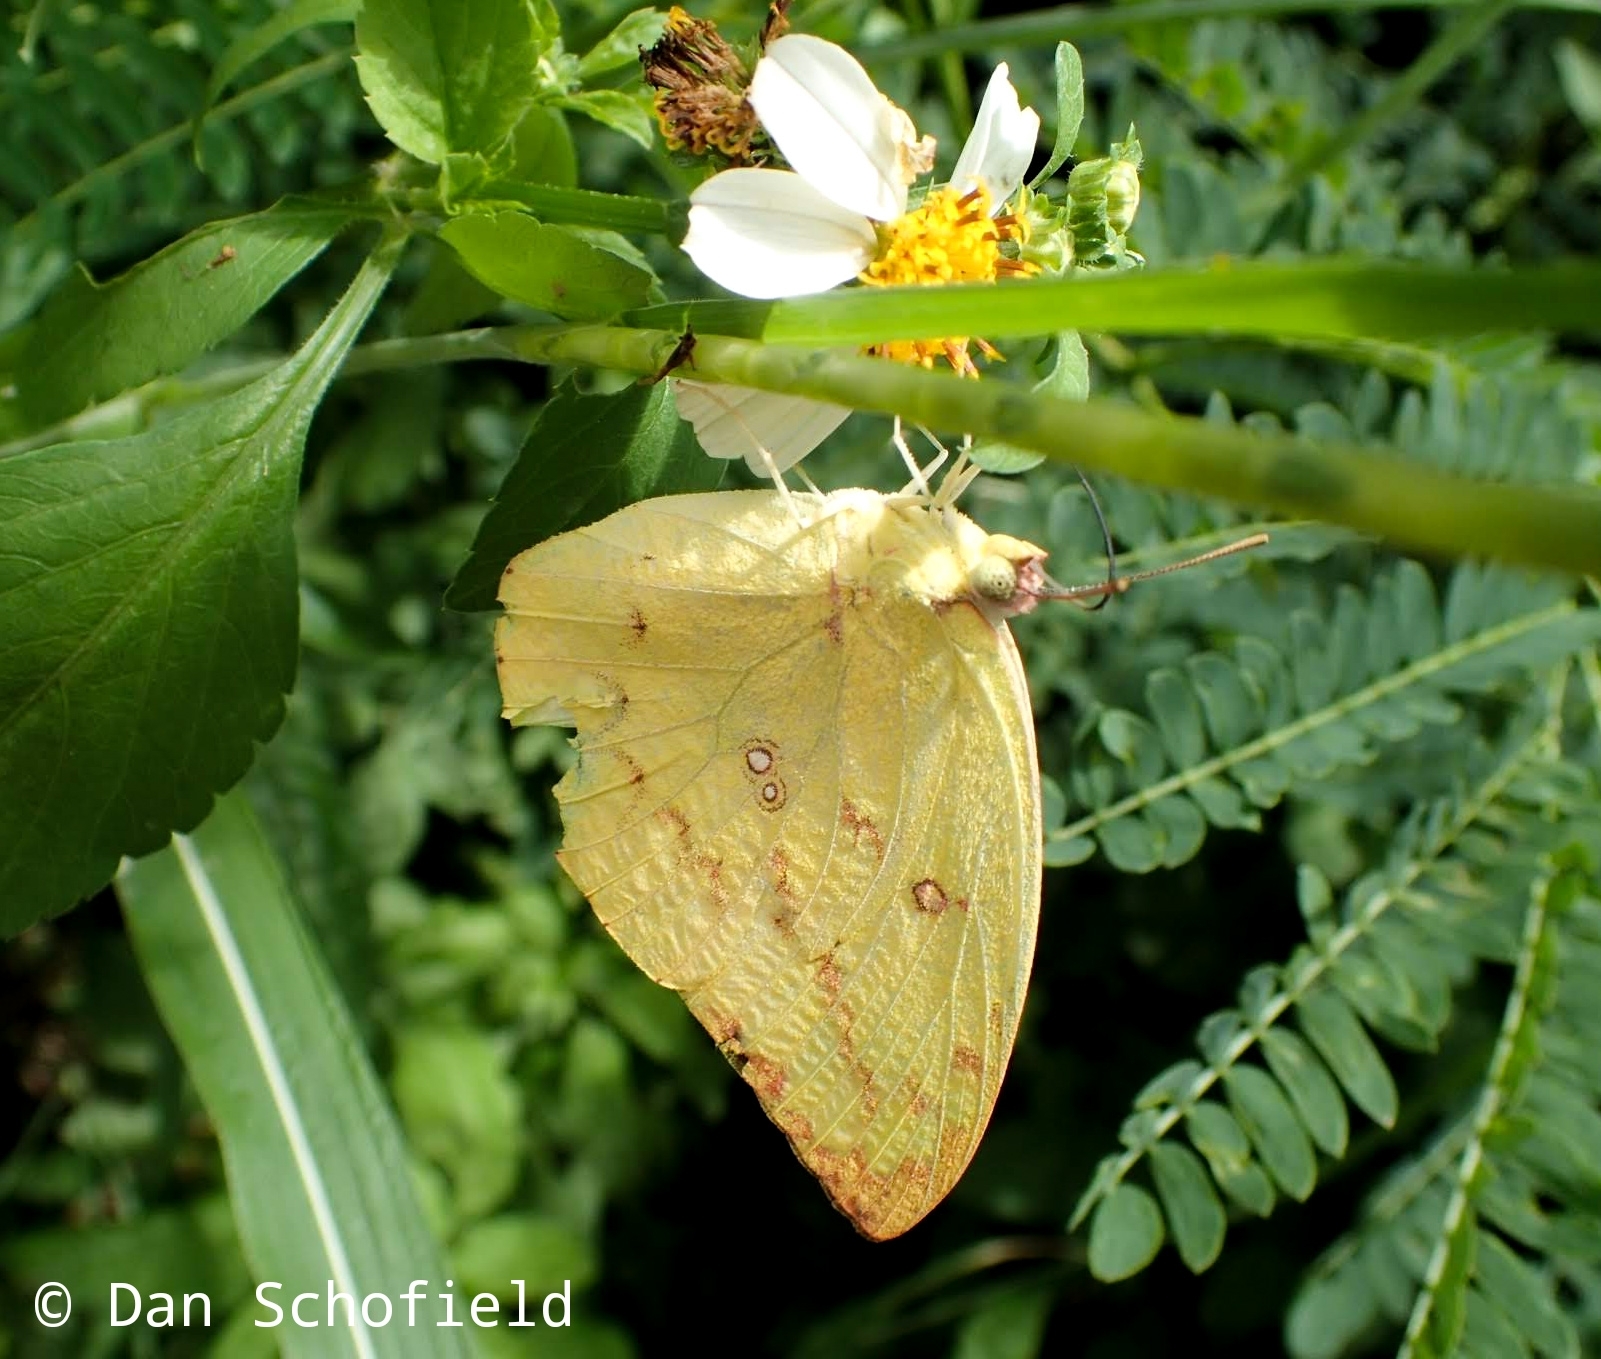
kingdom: Animalia
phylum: Arthropoda
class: Insecta
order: Lepidoptera
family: Pieridae
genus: Catopsilia
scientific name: Catopsilia pomona
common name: Common emigrant
